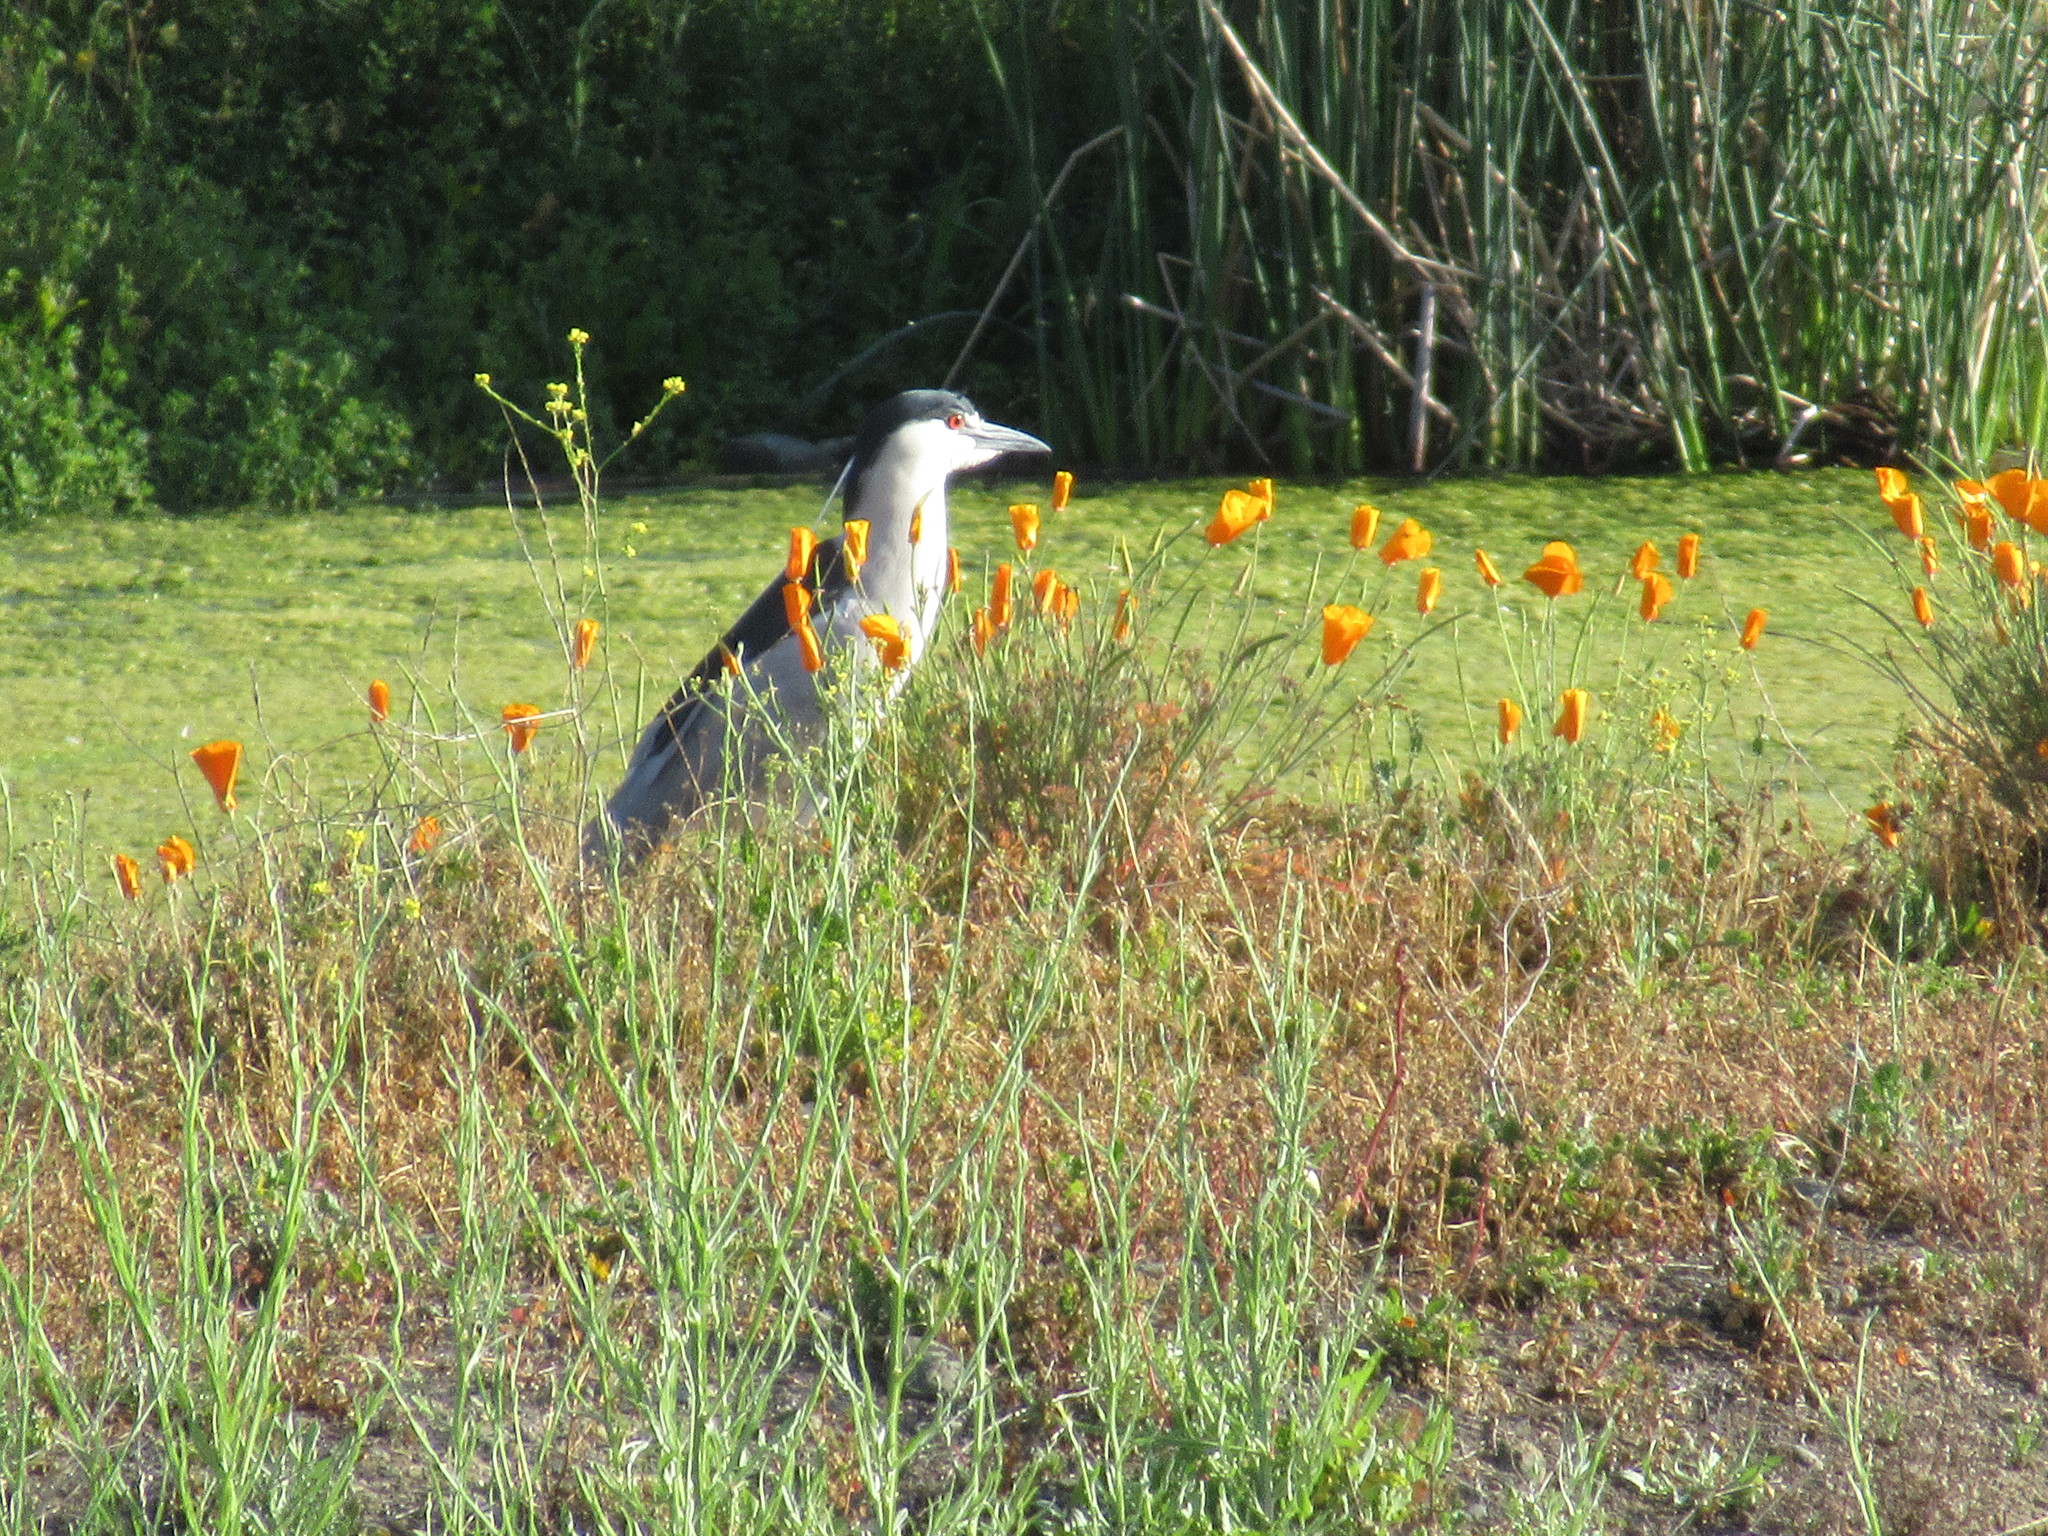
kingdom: Animalia
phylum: Chordata
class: Aves
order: Pelecaniformes
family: Ardeidae
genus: Nycticorax
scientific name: Nycticorax nycticorax
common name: Black-crowned night heron
